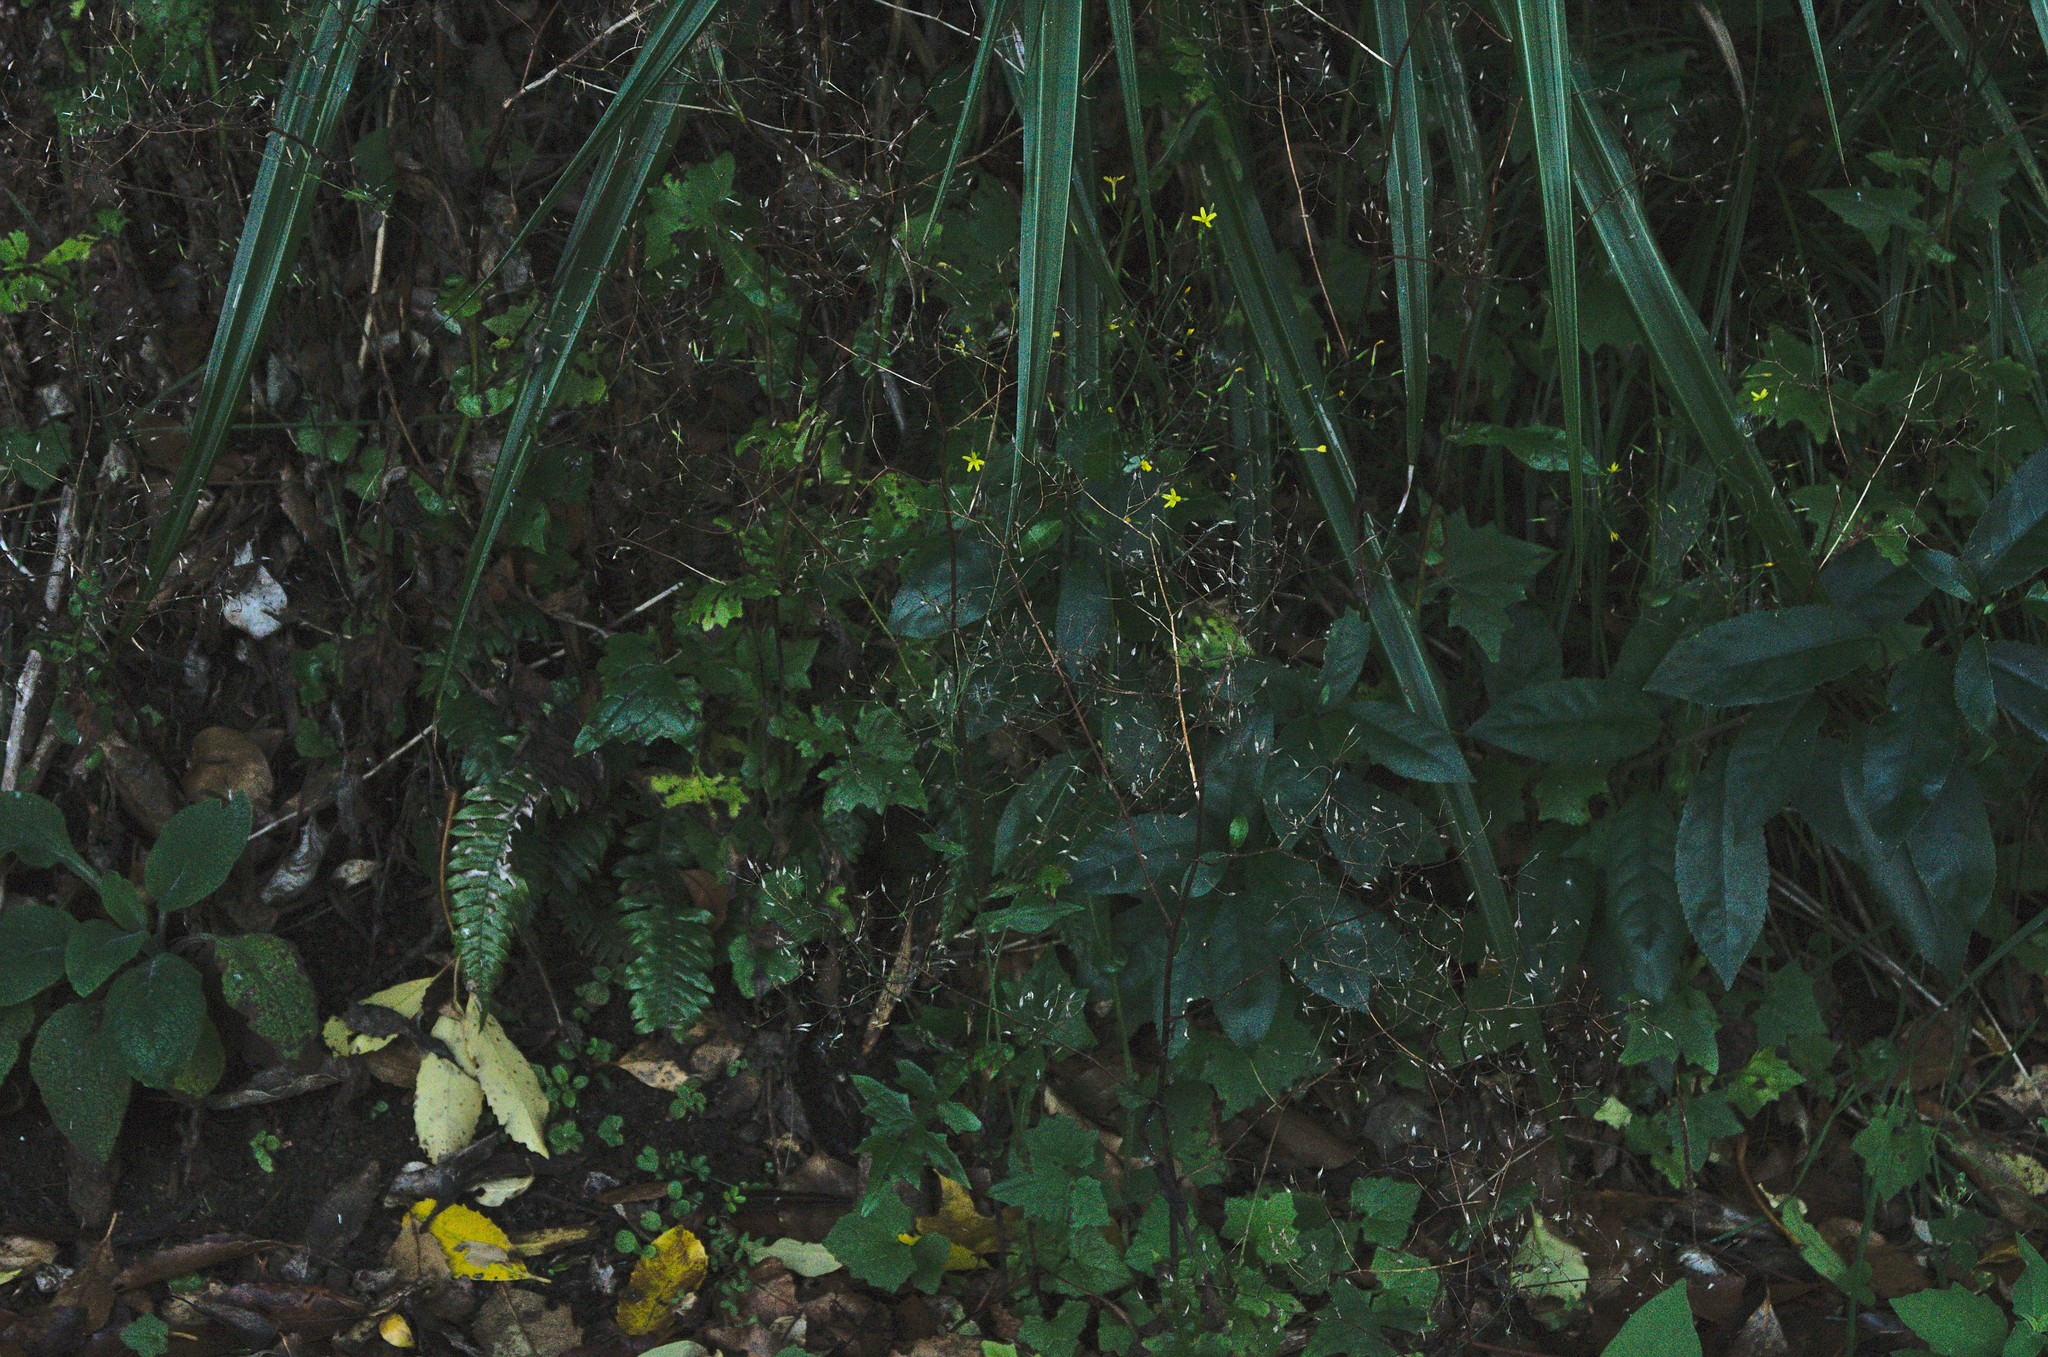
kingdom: Plantae
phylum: Tracheophyta
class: Magnoliopsida
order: Asterales
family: Asteraceae
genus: Mycelis
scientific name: Mycelis muralis
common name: Wall lettuce
